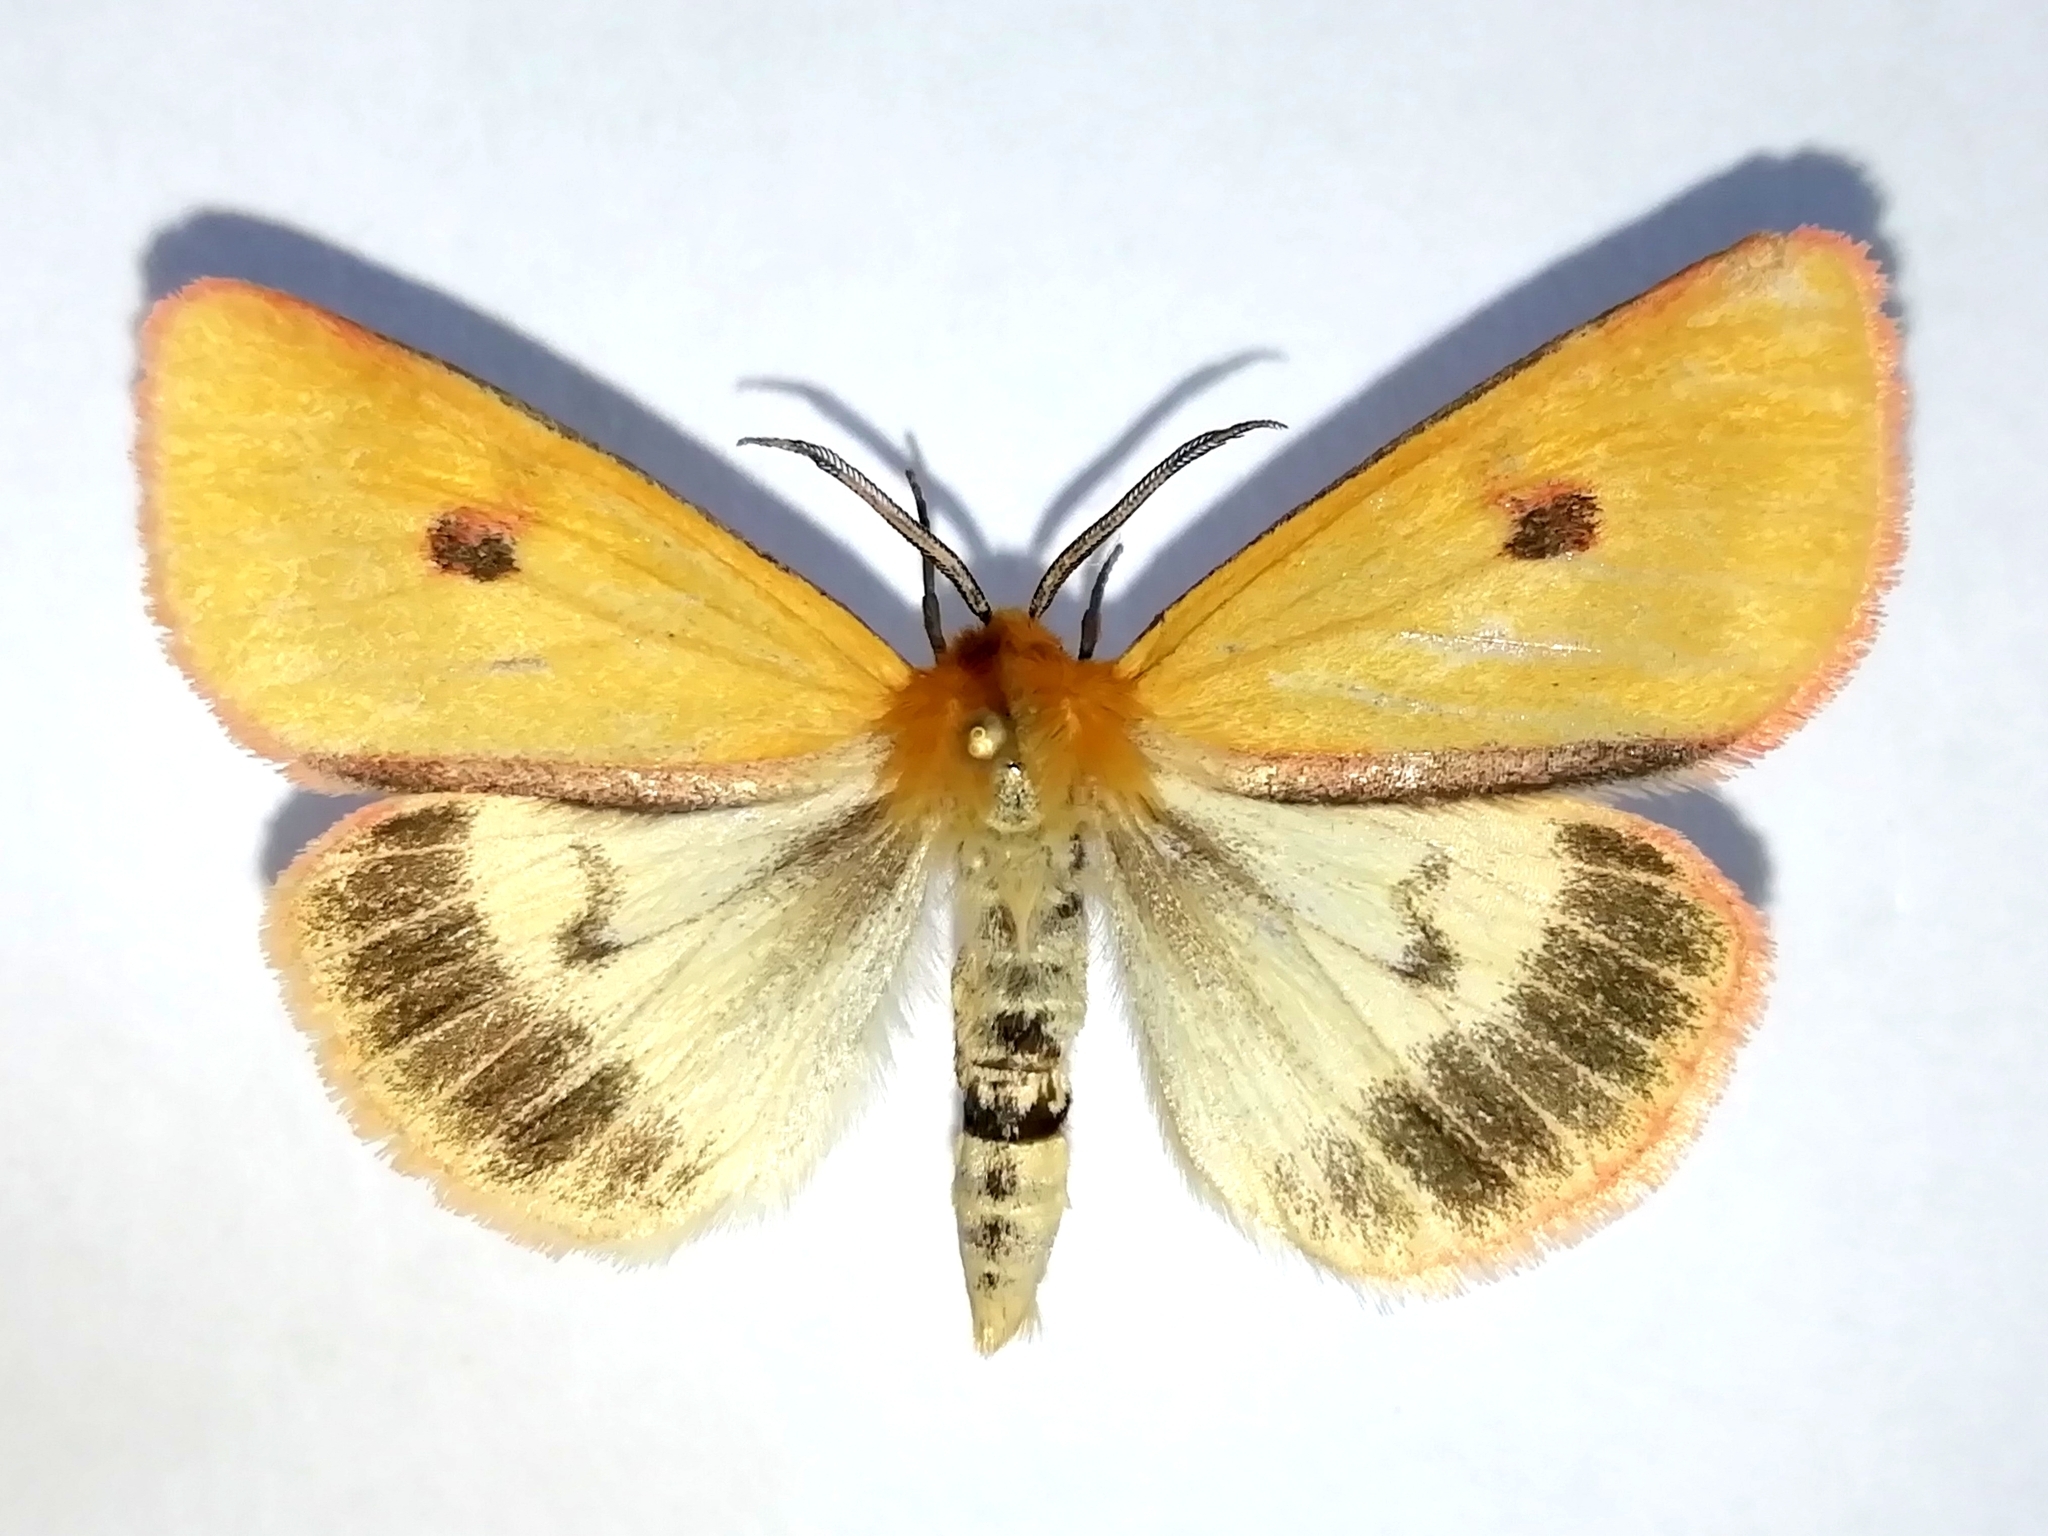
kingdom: Animalia
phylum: Arthropoda
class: Insecta
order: Lepidoptera
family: Erebidae
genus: Diacrisia
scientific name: Diacrisia sannio
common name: Clouded buff
